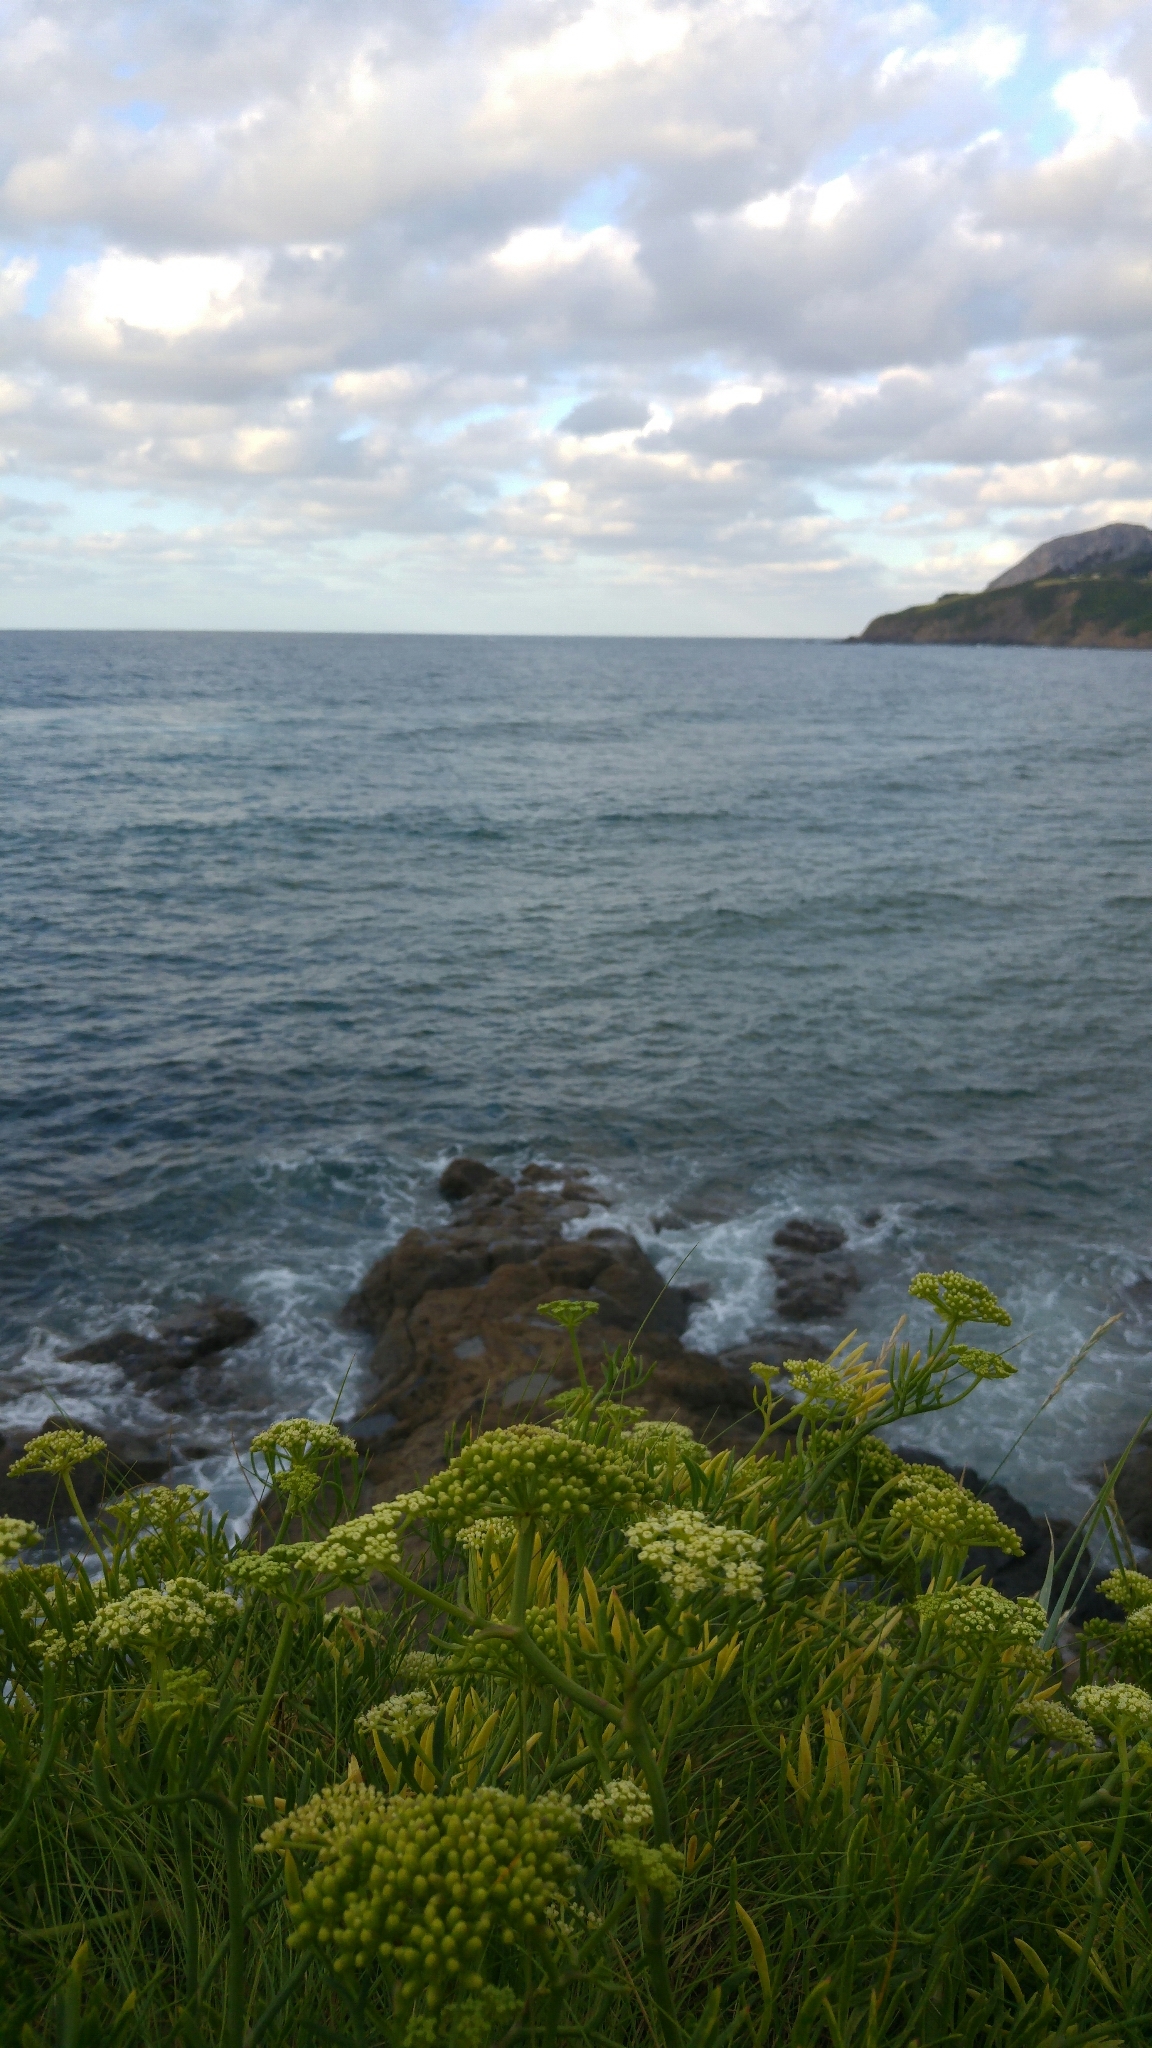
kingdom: Plantae
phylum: Tracheophyta
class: Magnoliopsida
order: Apiales
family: Apiaceae
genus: Crithmum
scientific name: Crithmum maritimum
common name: Rock samphire
